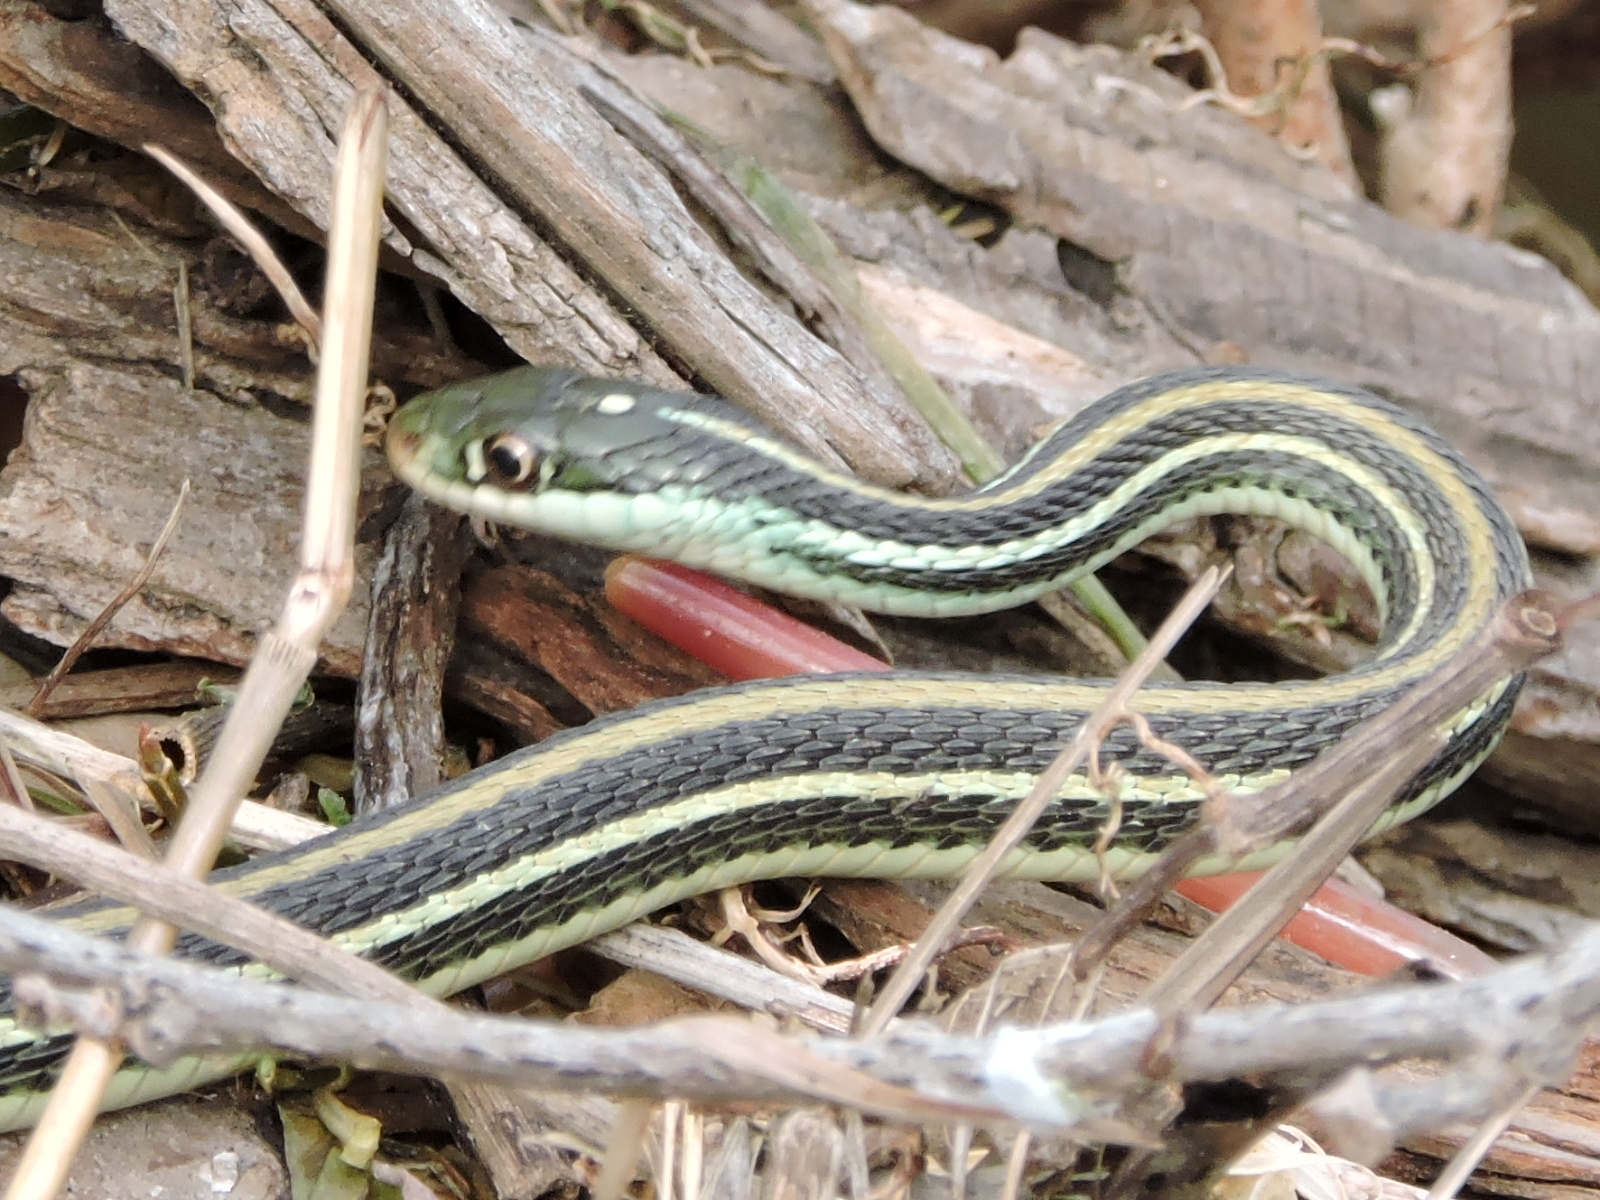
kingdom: Animalia
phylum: Chordata
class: Squamata
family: Colubridae
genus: Thamnophis
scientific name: Thamnophis proximus
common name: Western ribbon snake
